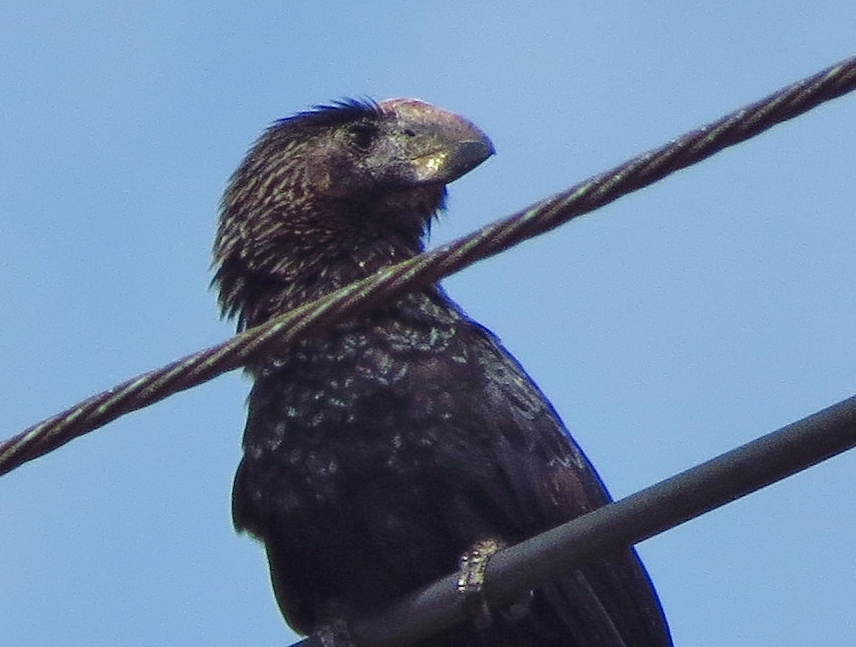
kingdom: Animalia
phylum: Chordata
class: Aves
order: Cuculiformes
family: Cuculidae
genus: Crotophaga
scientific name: Crotophaga ani
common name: Smooth-billed ani
